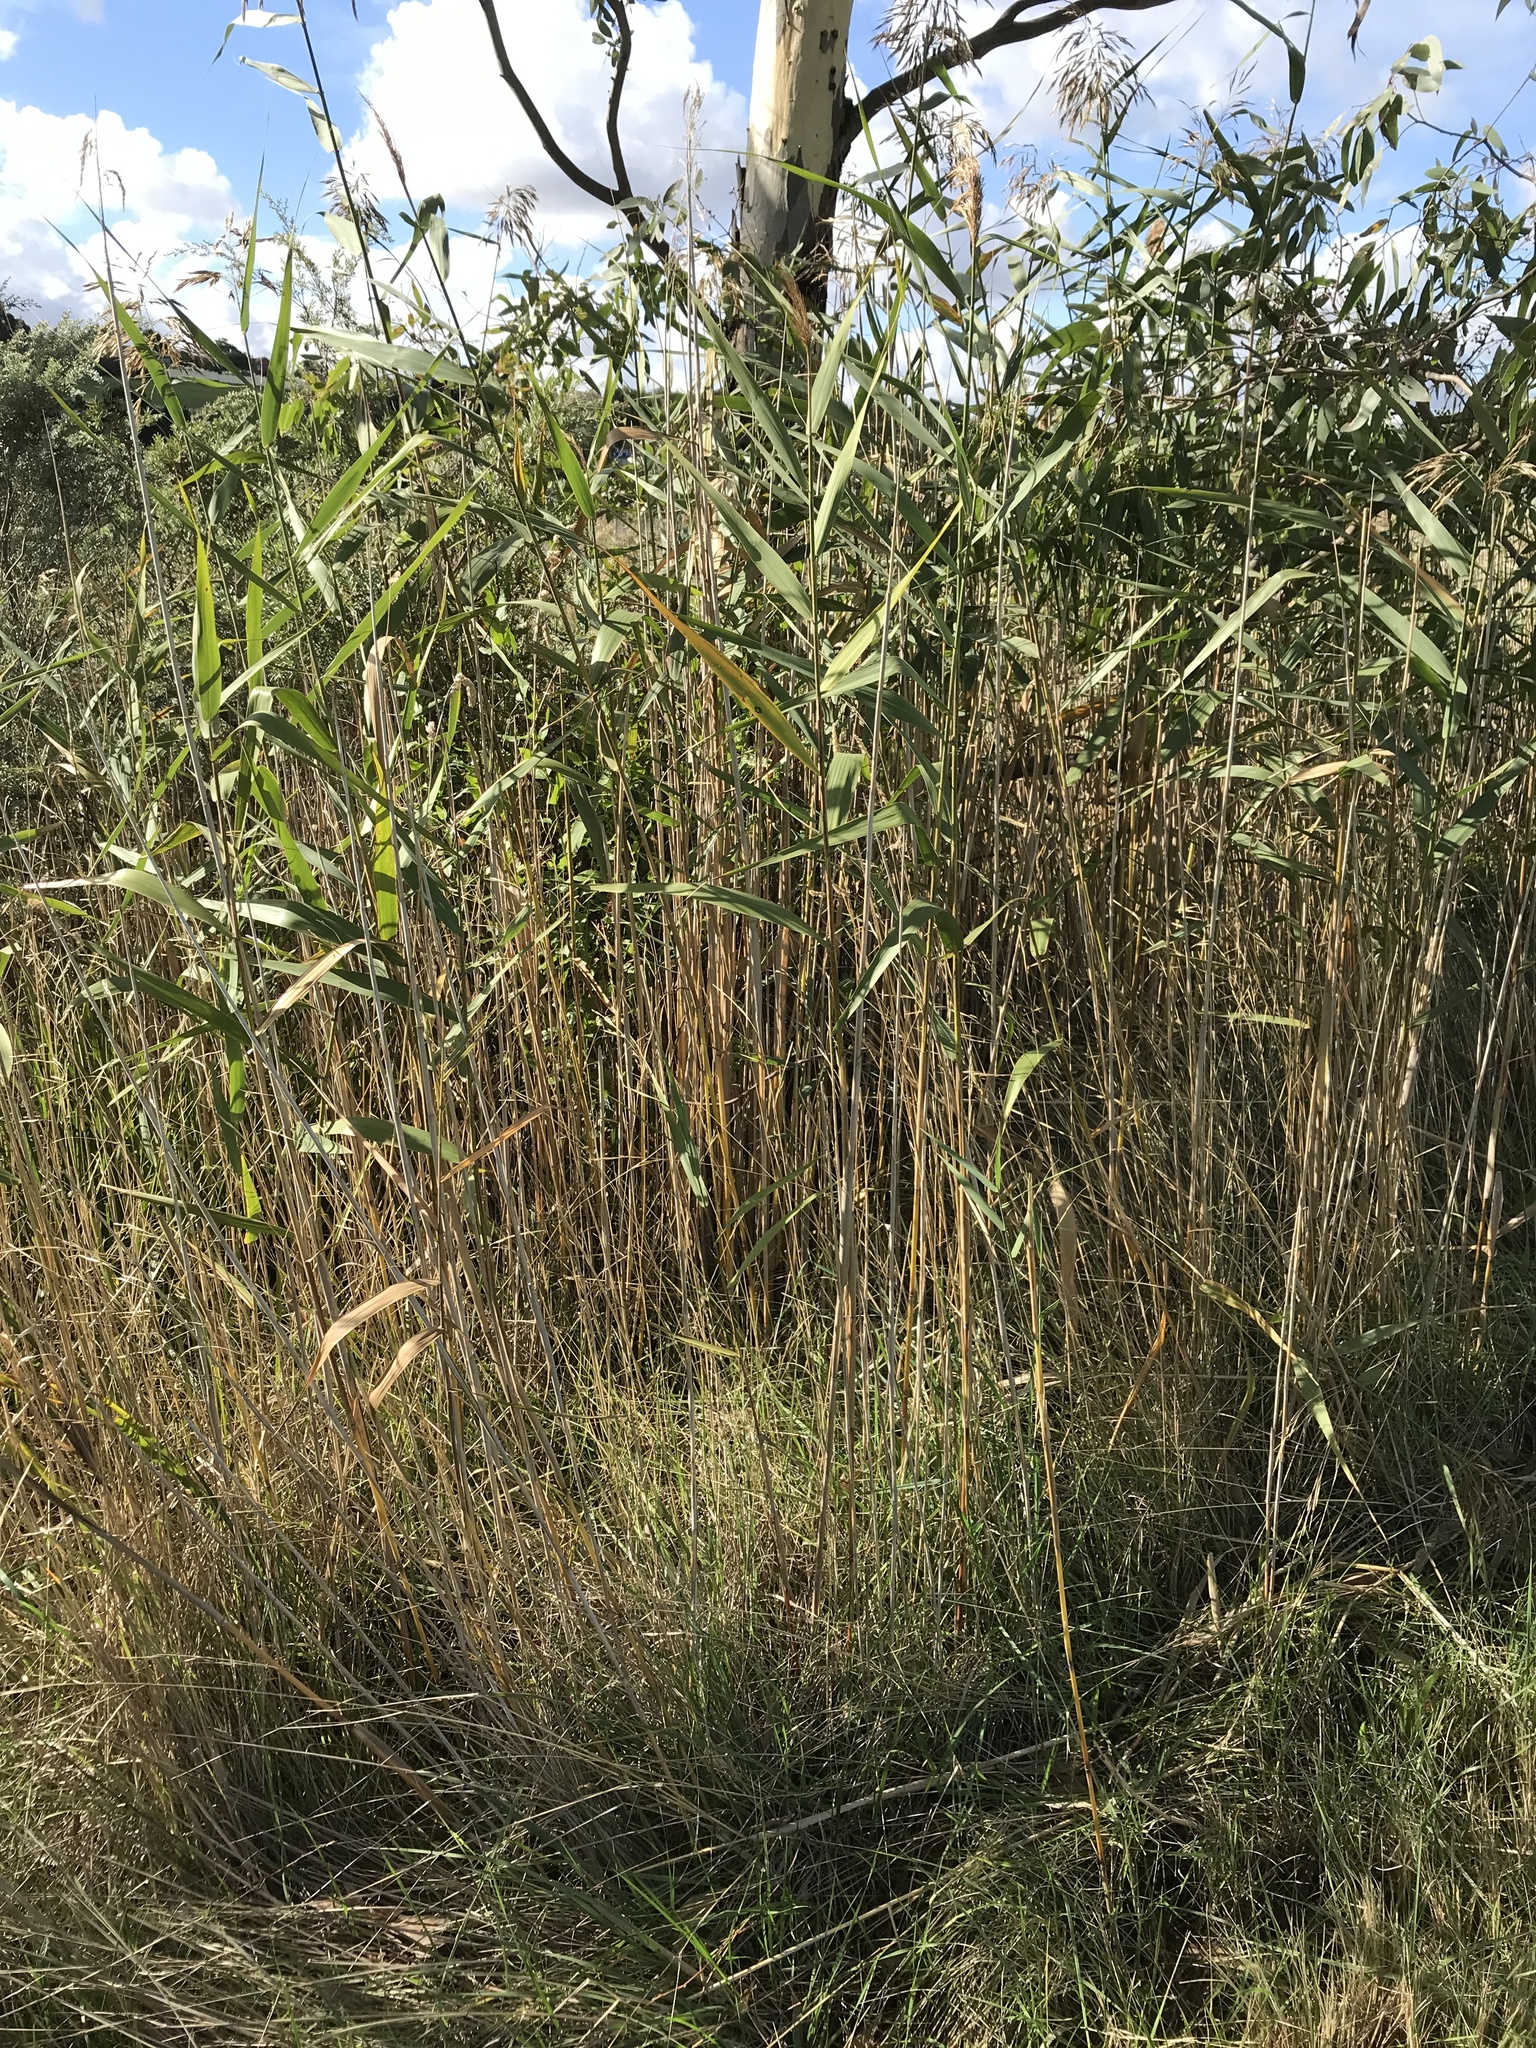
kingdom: Plantae
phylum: Tracheophyta
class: Liliopsida
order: Poales
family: Poaceae
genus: Phragmites
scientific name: Phragmites australis
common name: Common reed
